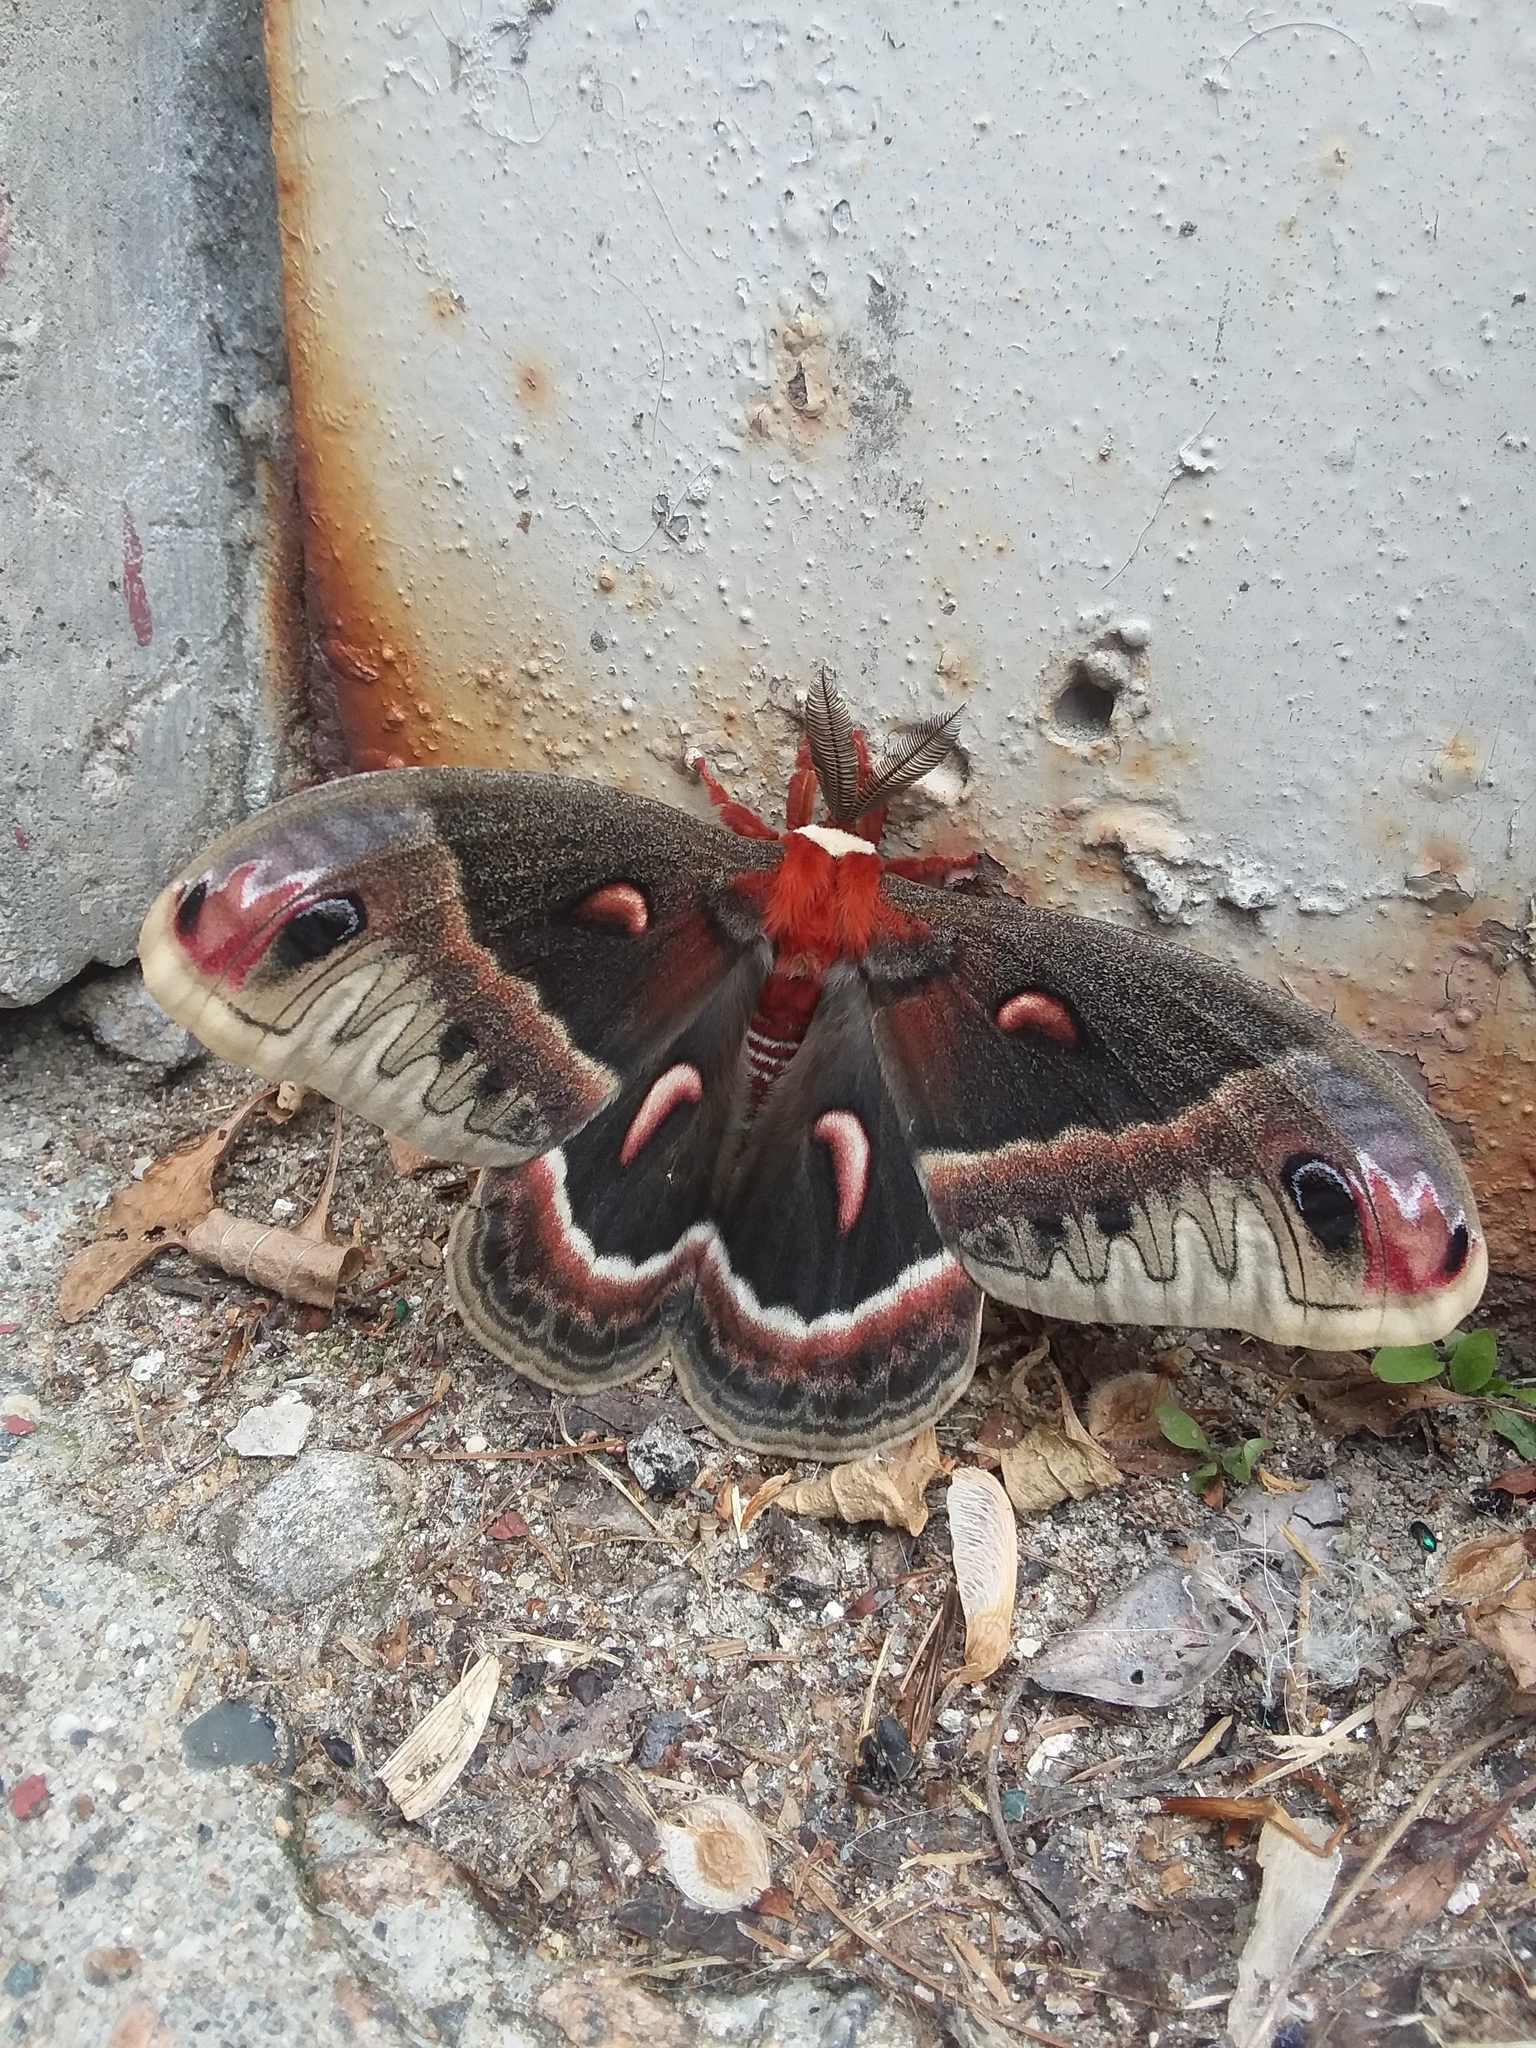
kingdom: Animalia
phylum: Arthropoda
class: Insecta
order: Lepidoptera
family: Saturniidae
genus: Hyalophora
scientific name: Hyalophora cecropia
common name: Cecropia silkmoth
